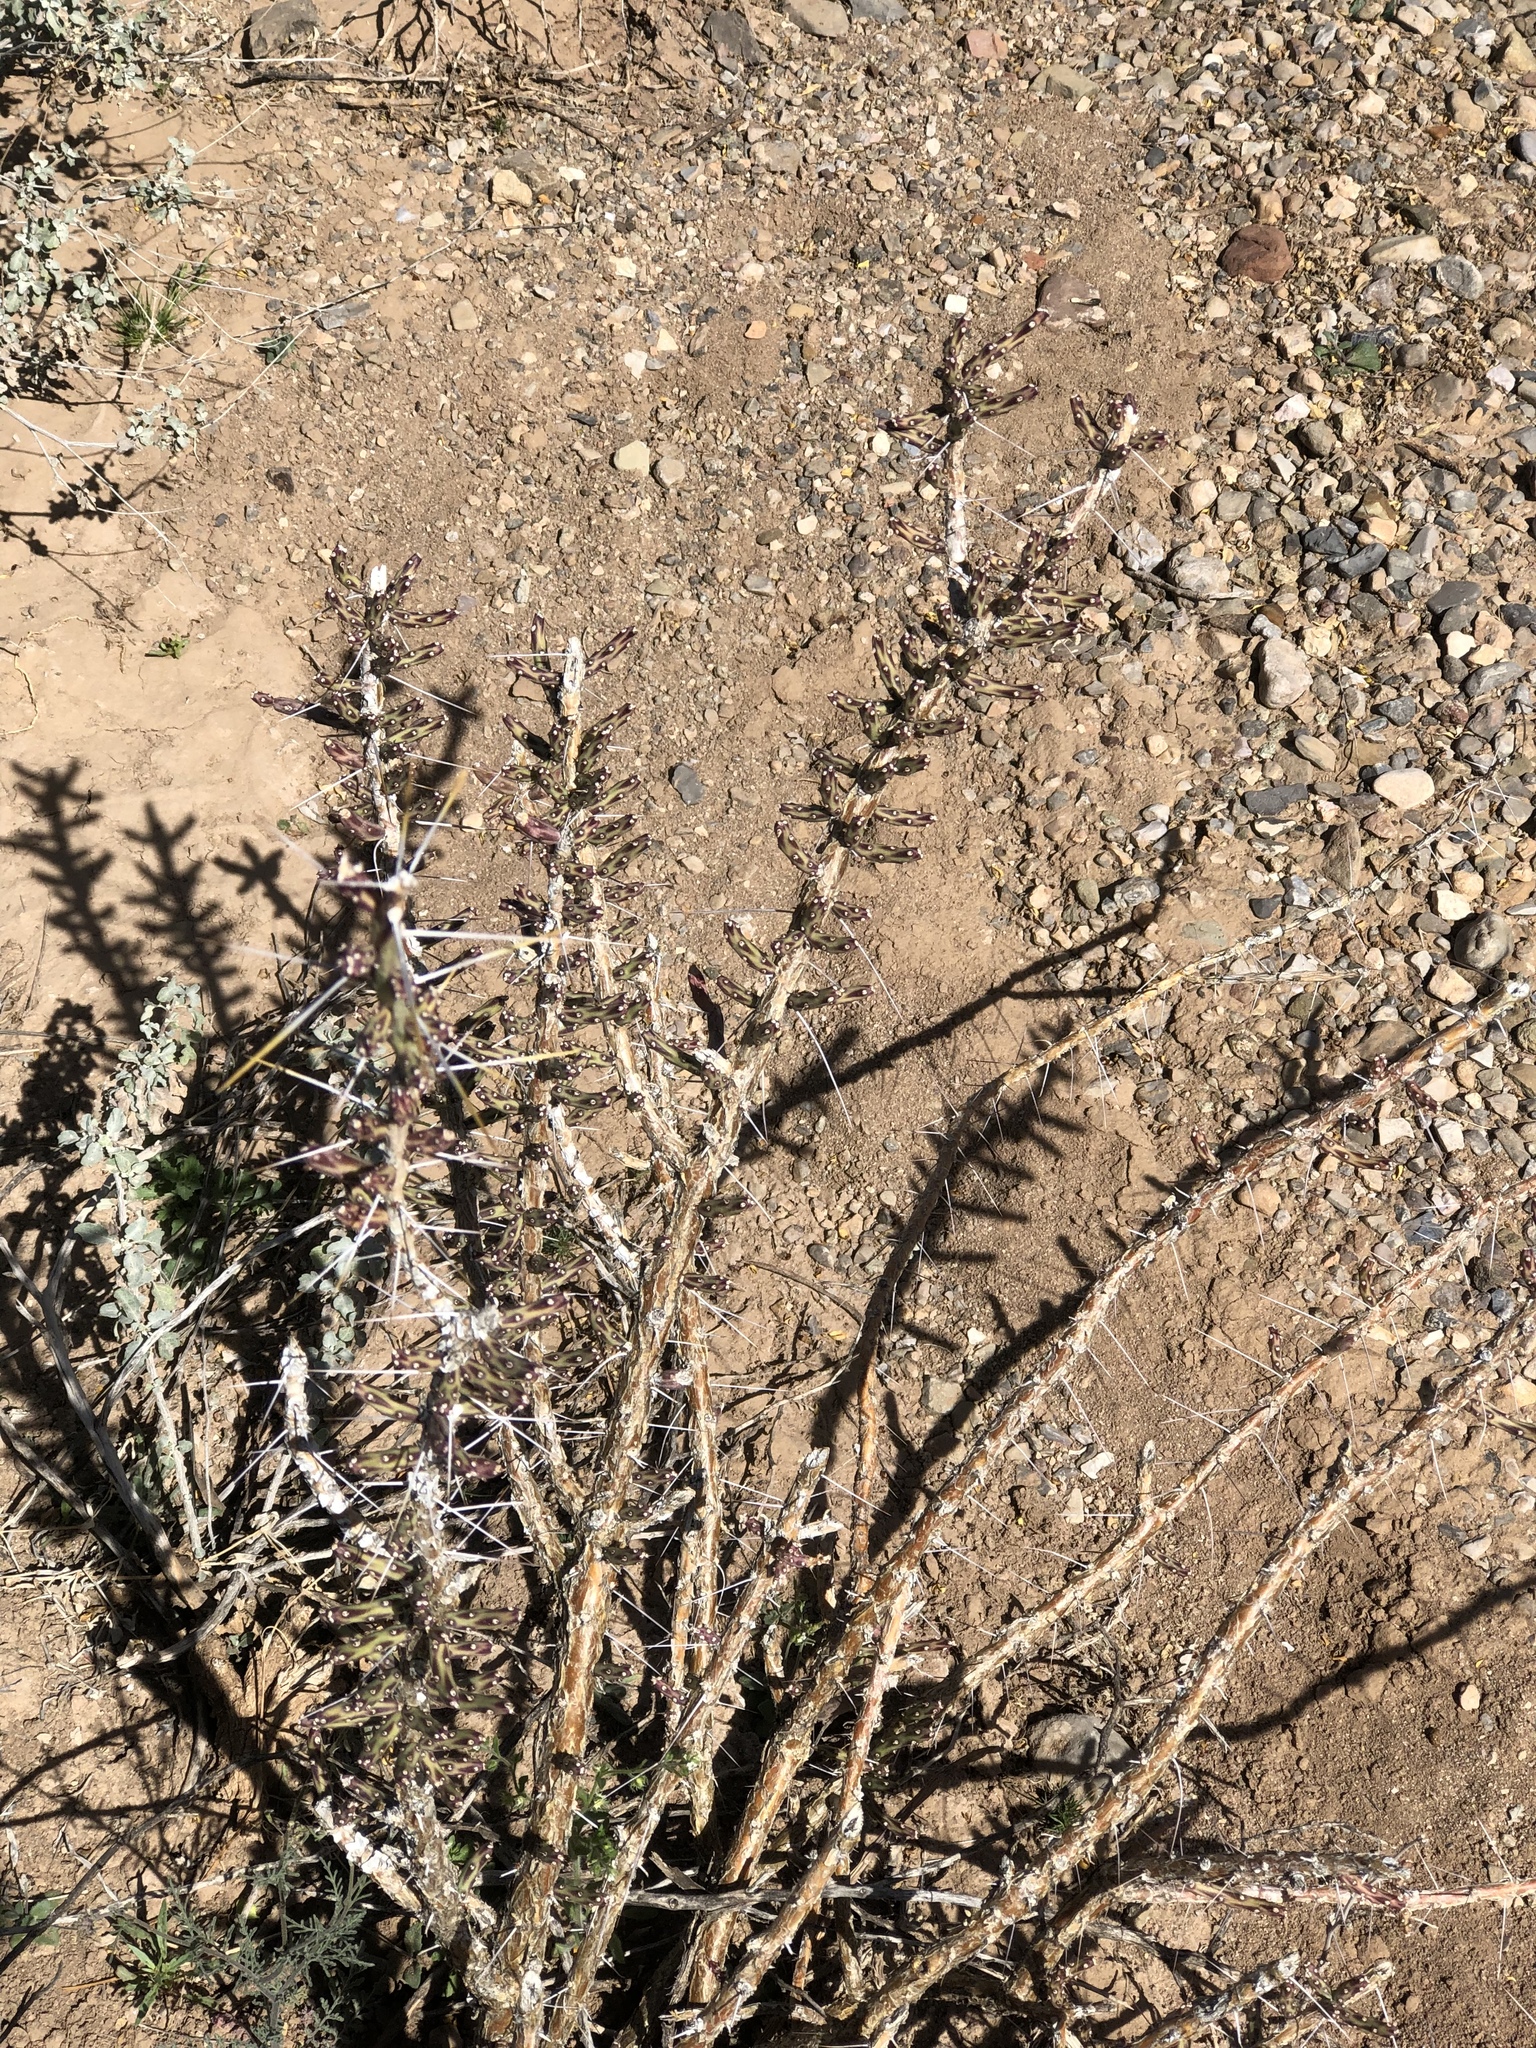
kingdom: Plantae
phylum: Tracheophyta
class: Magnoliopsida
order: Caryophyllales
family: Cactaceae
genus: Cylindropuntia
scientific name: Cylindropuntia leptocaulis
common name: Christmas cactus
